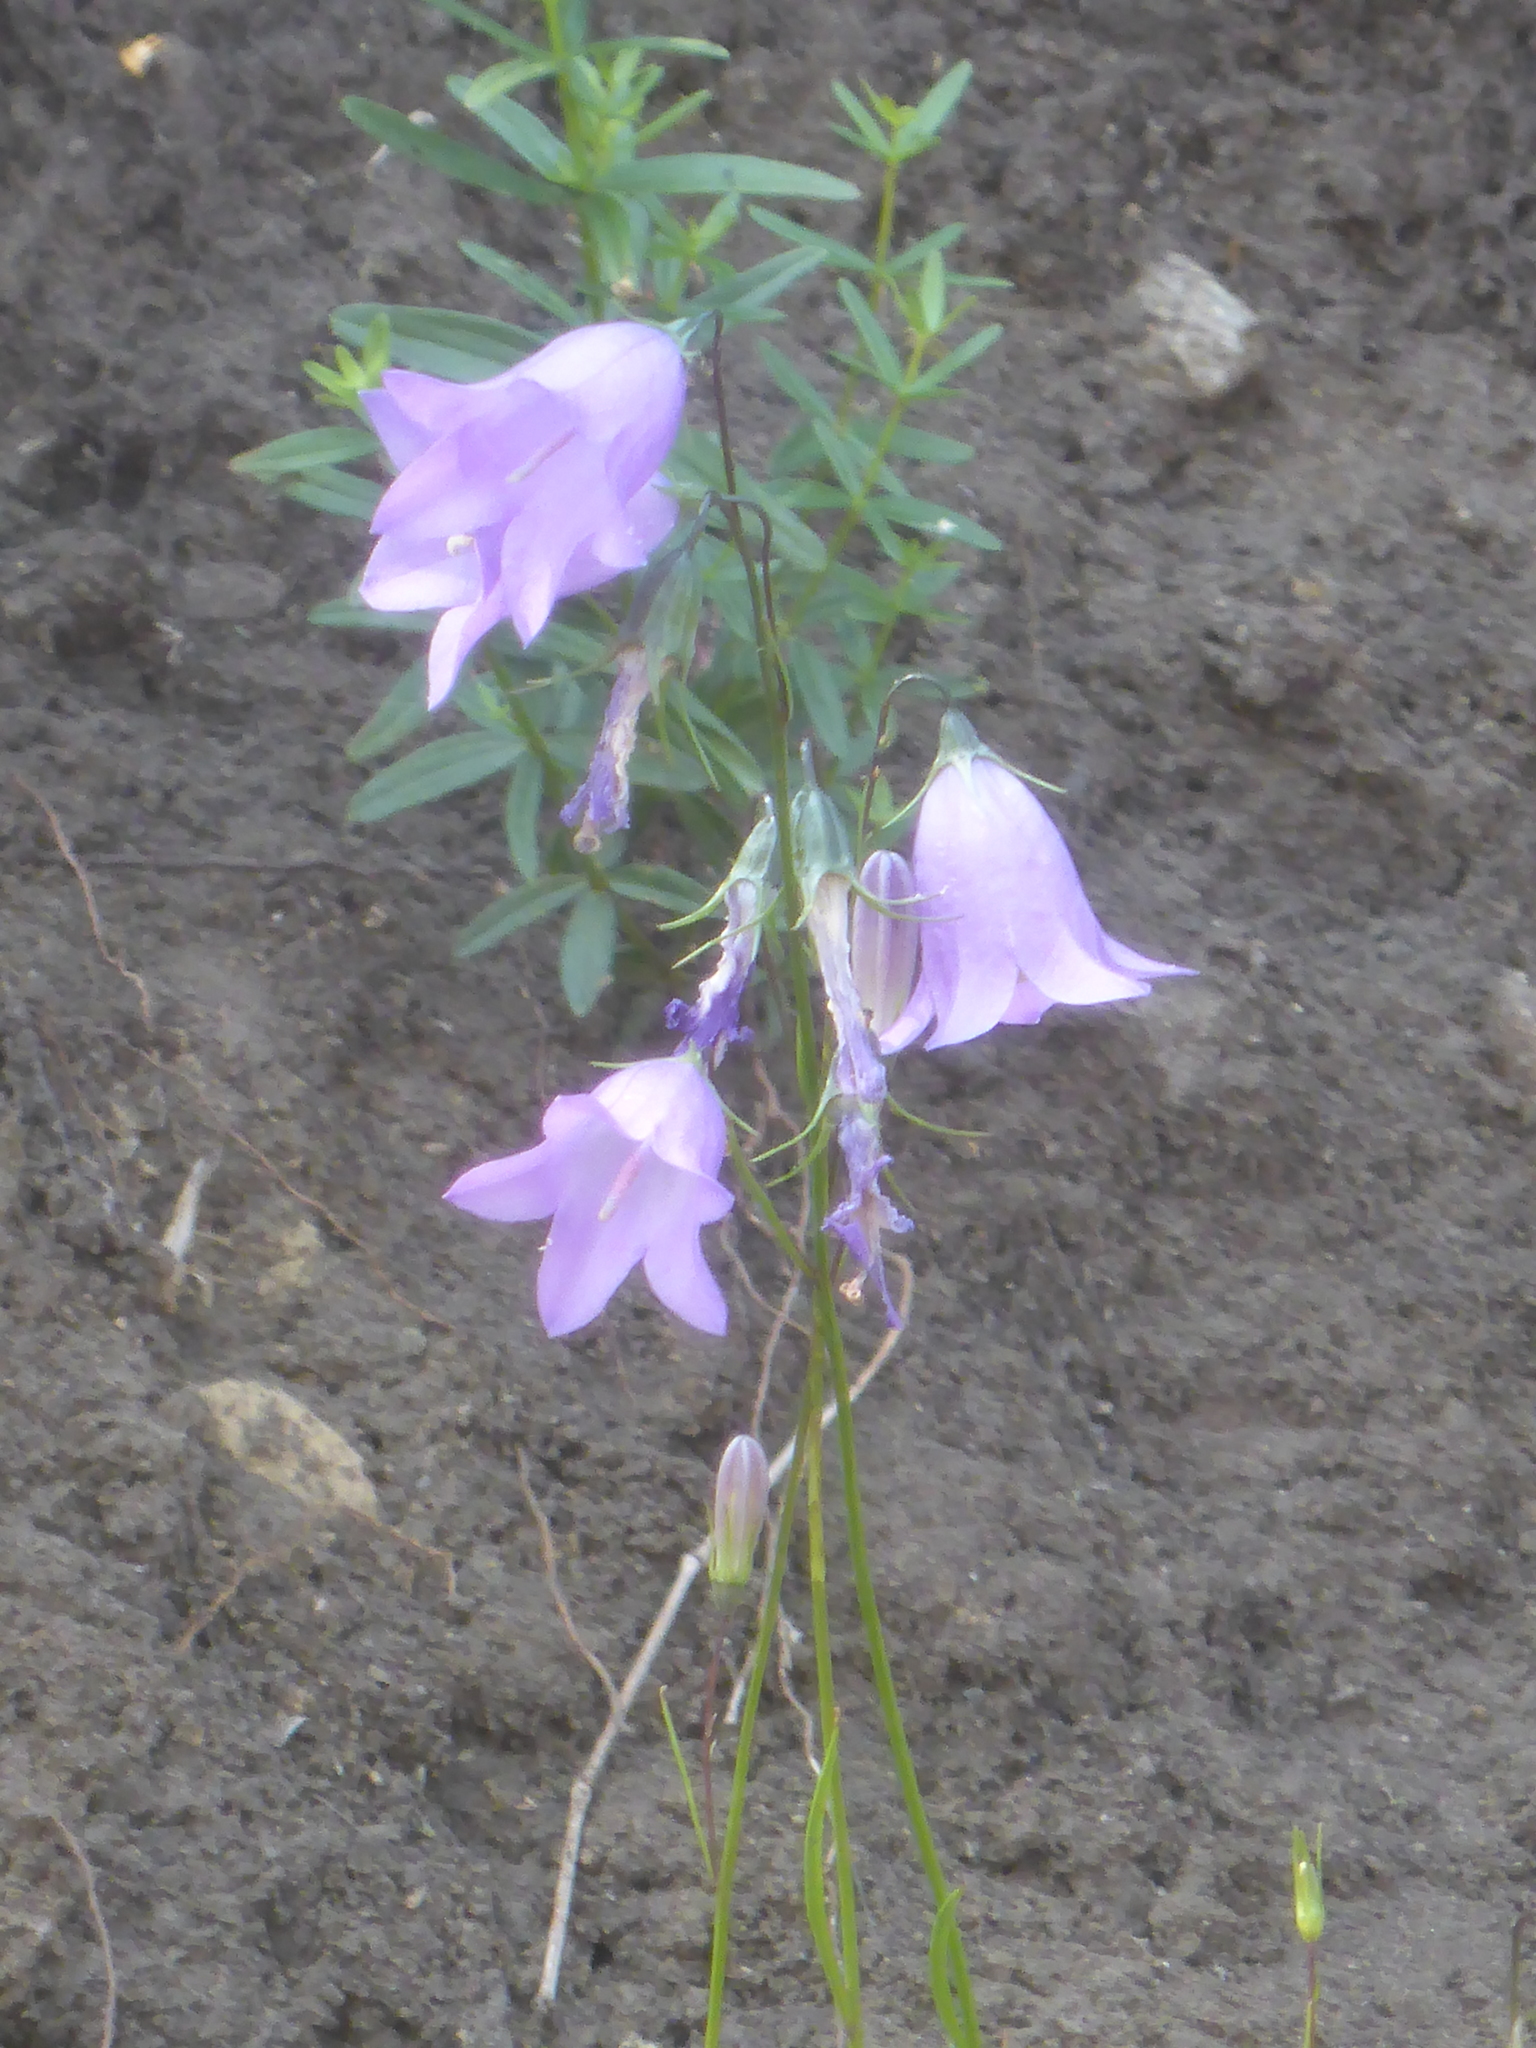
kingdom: Plantae
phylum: Tracheophyta
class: Magnoliopsida
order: Asterales
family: Campanulaceae
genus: Campanula
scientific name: Campanula alaskana
